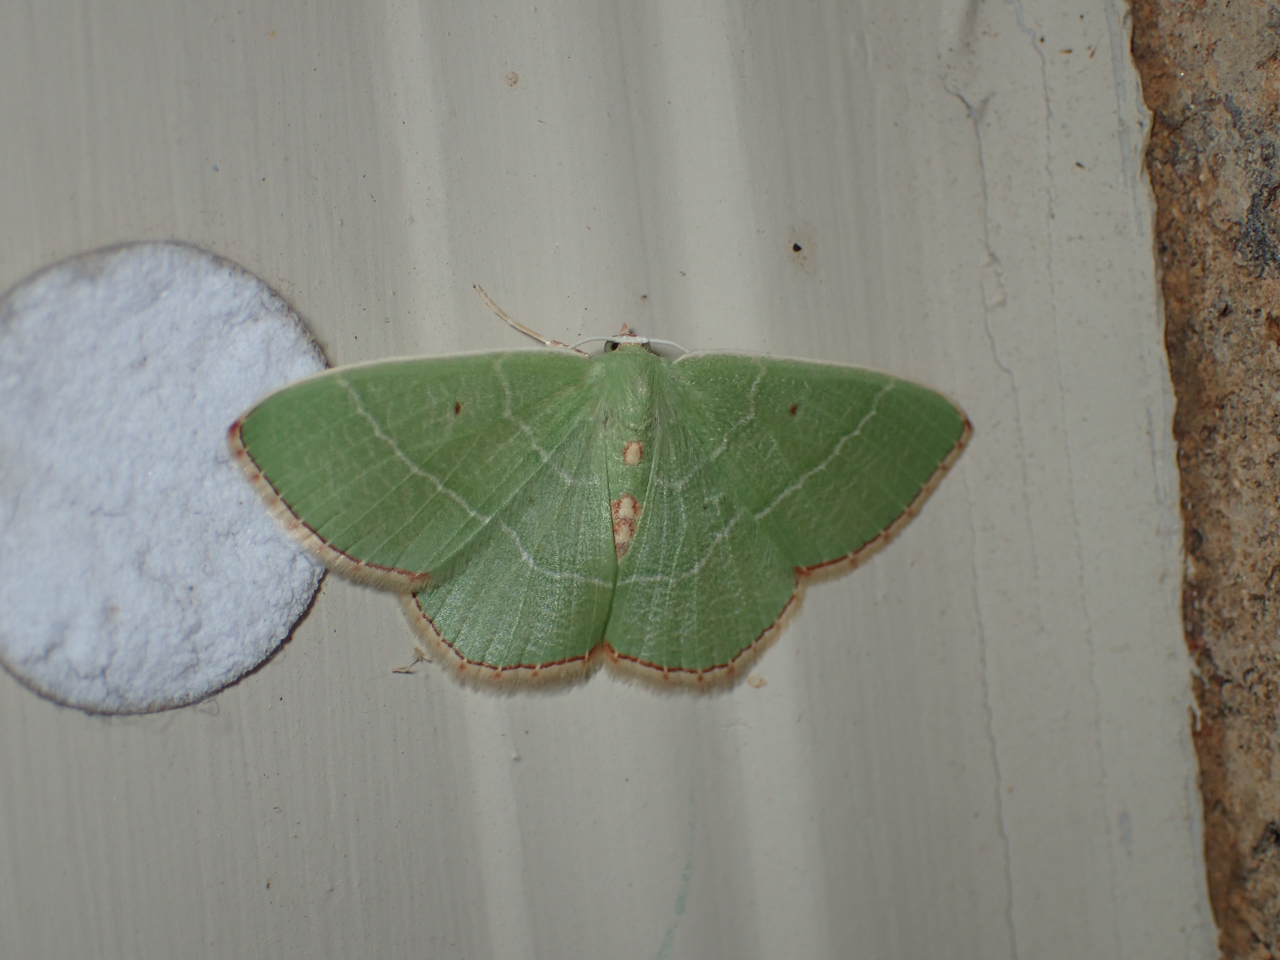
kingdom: Animalia
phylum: Arthropoda
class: Insecta
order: Lepidoptera
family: Geometridae
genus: Nemoria
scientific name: Nemoria lixaria
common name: Red-bordered emerald
